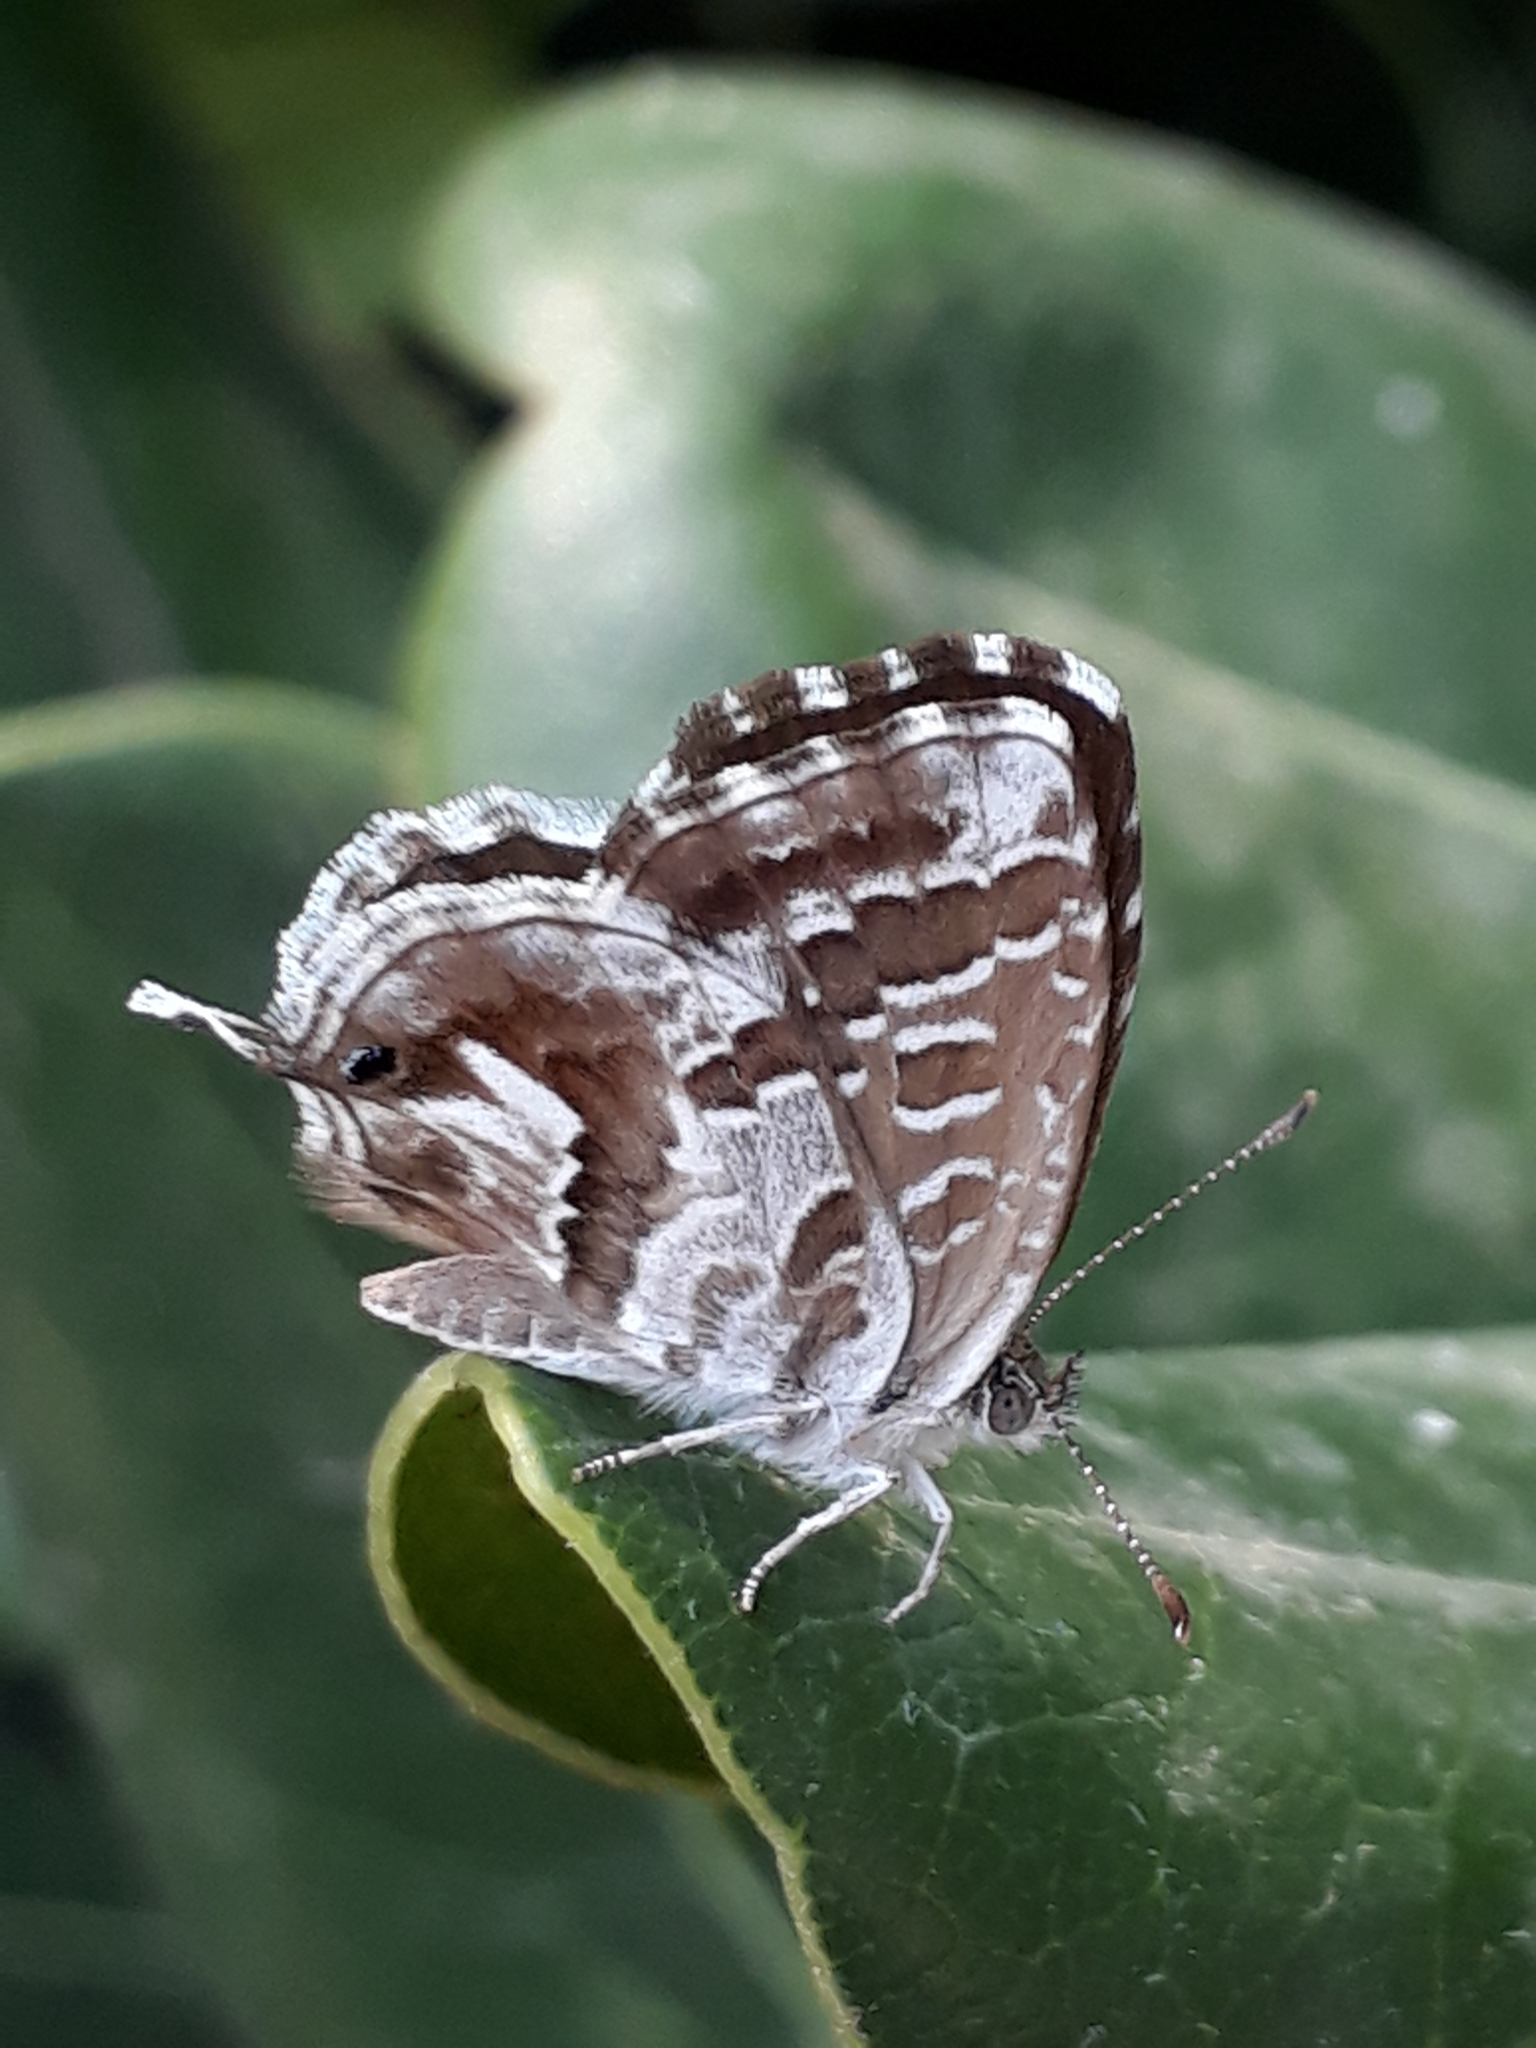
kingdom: Animalia
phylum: Arthropoda
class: Insecta
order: Lepidoptera
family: Lycaenidae
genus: Cacyreus
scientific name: Cacyreus marshalli
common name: Geranium bronze
